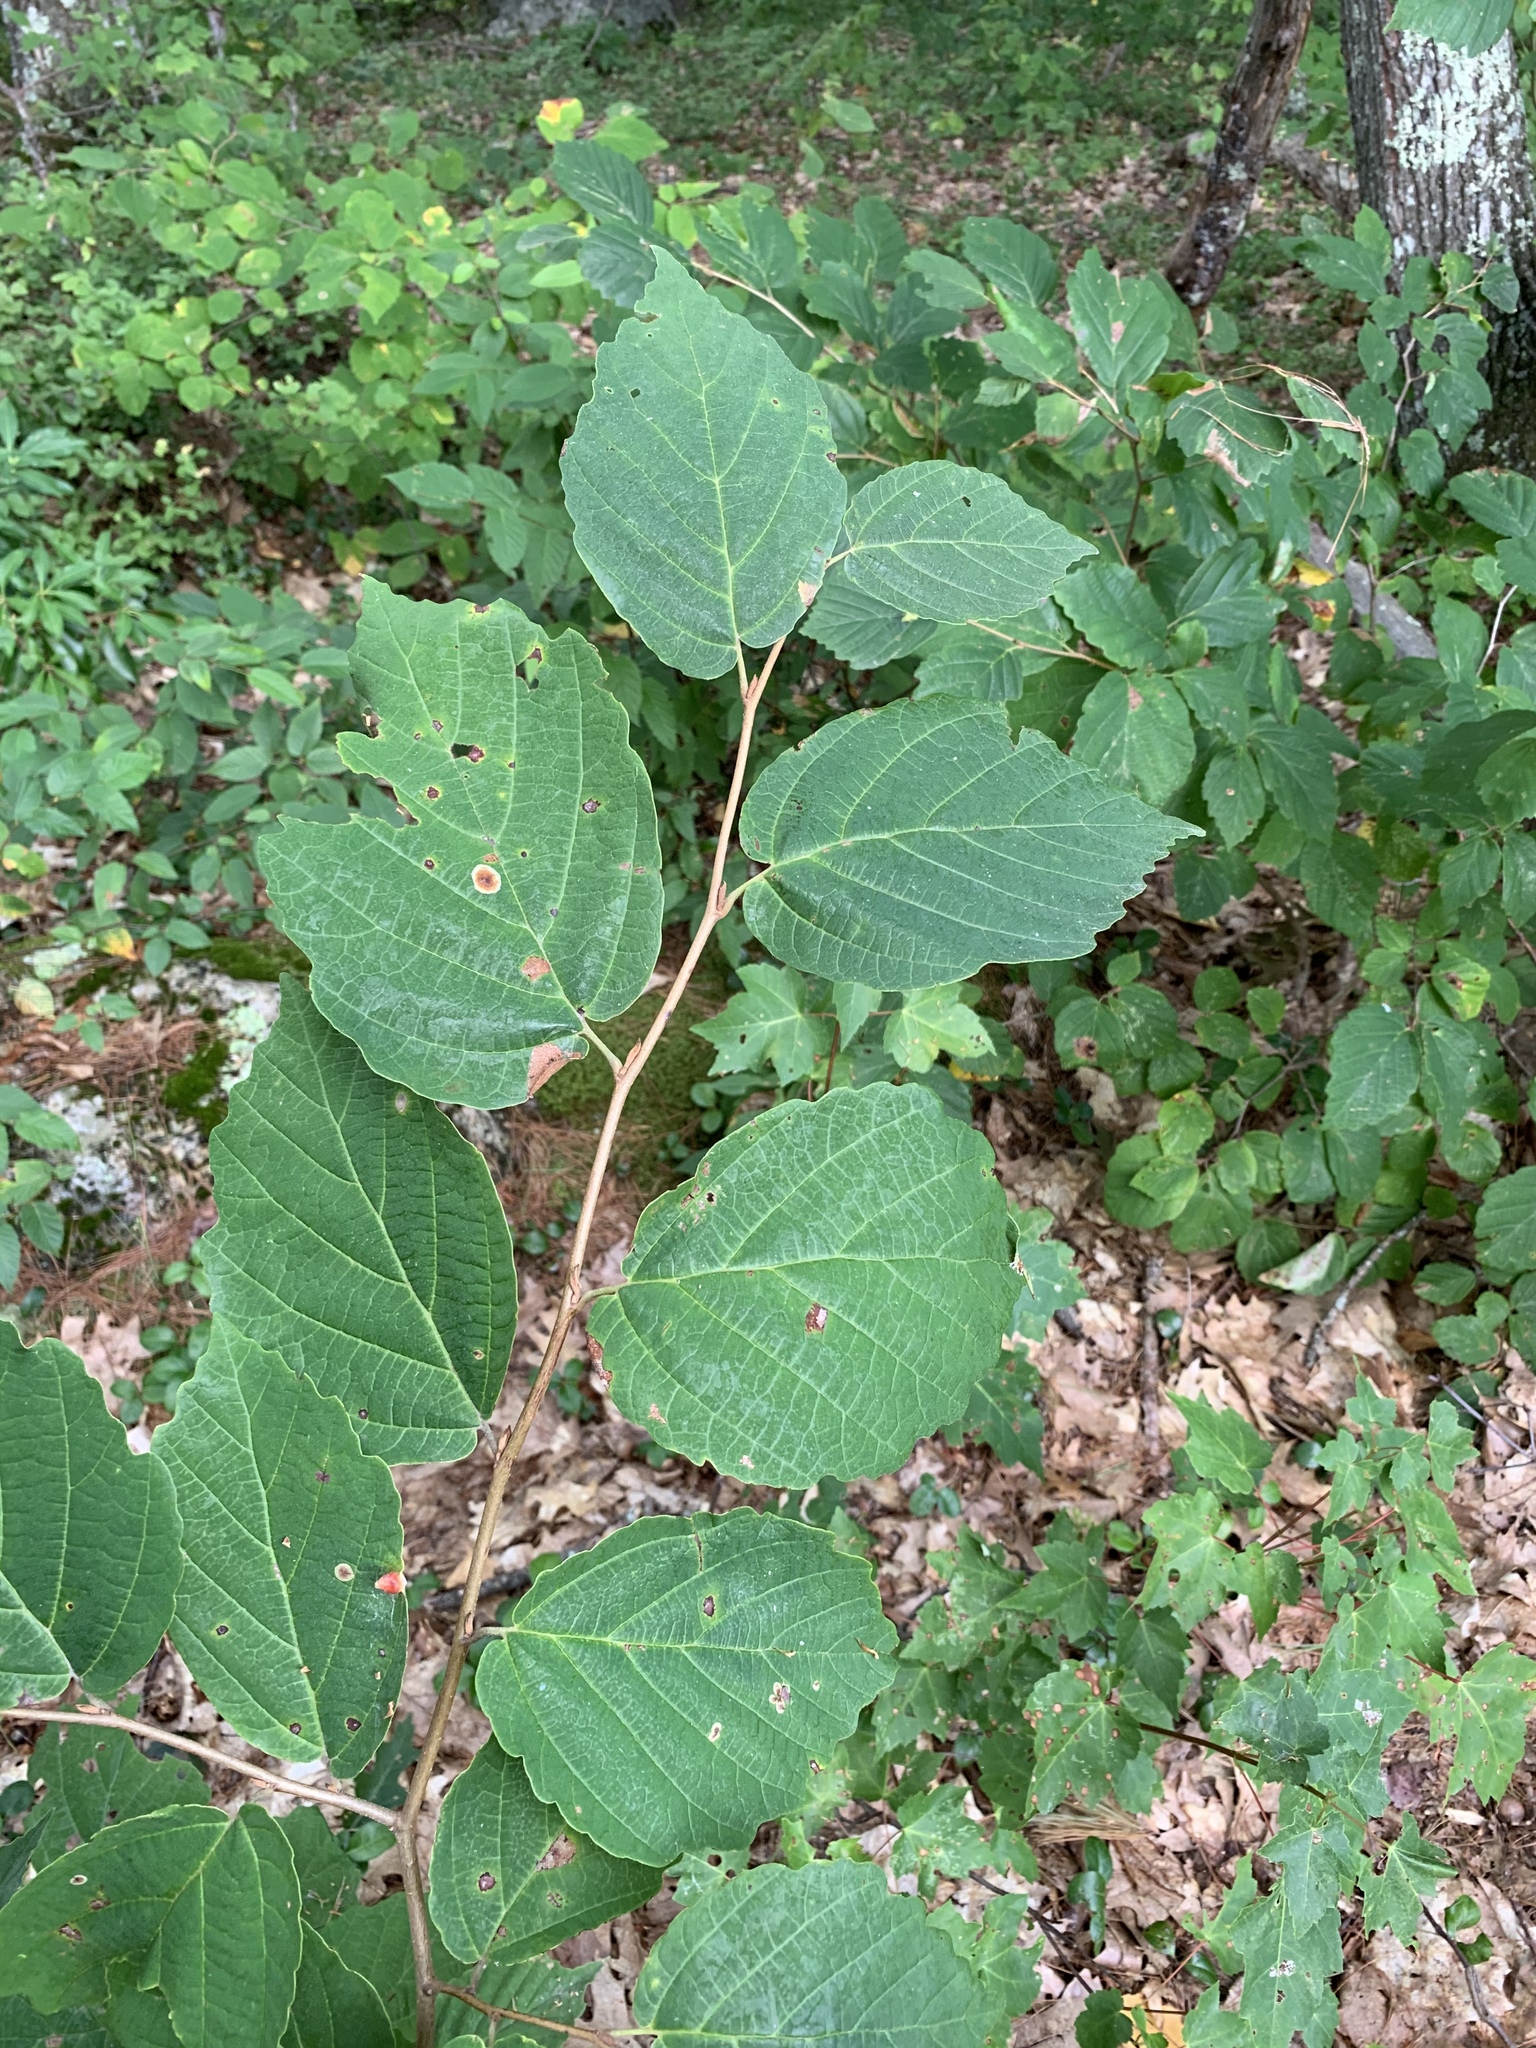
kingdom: Plantae
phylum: Tracheophyta
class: Magnoliopsida
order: Saxifragales
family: Hamamelidaceae
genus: Hamamelis
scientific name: Hamamelis virginiana
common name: Witch-hazel
